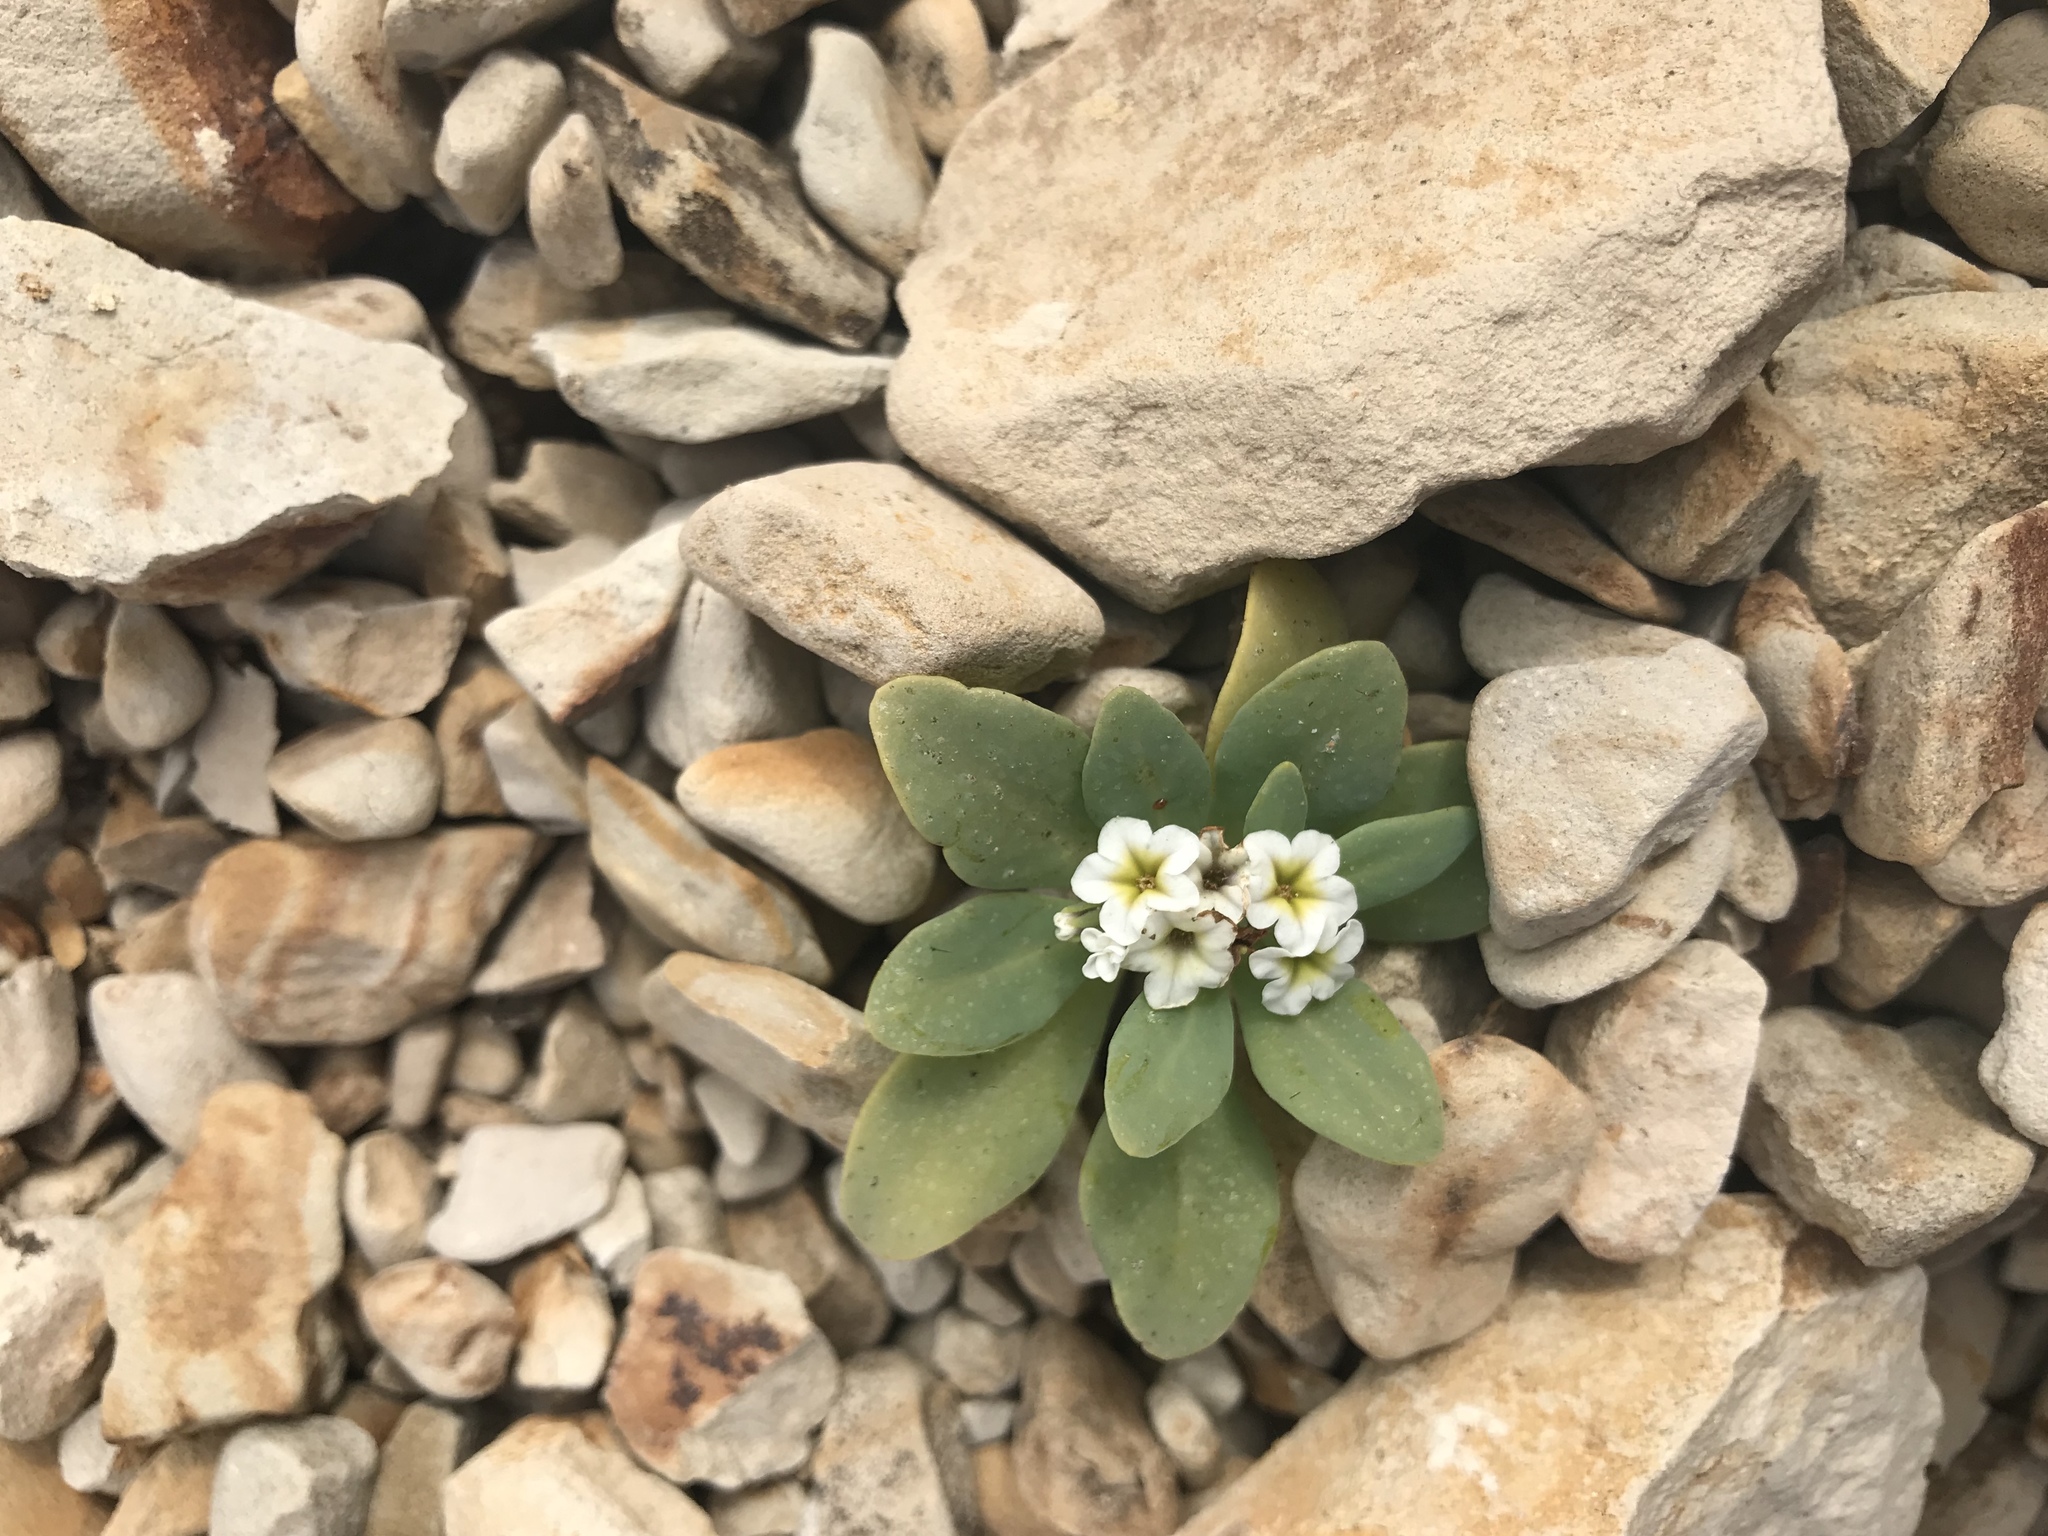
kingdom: Plantae
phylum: Tracheophyta
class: Magnoliopsida
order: Boraginales
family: Heliotropiaceae
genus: Heliotropium
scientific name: Heliotropium curassavicum
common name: Seaside heliotrope
